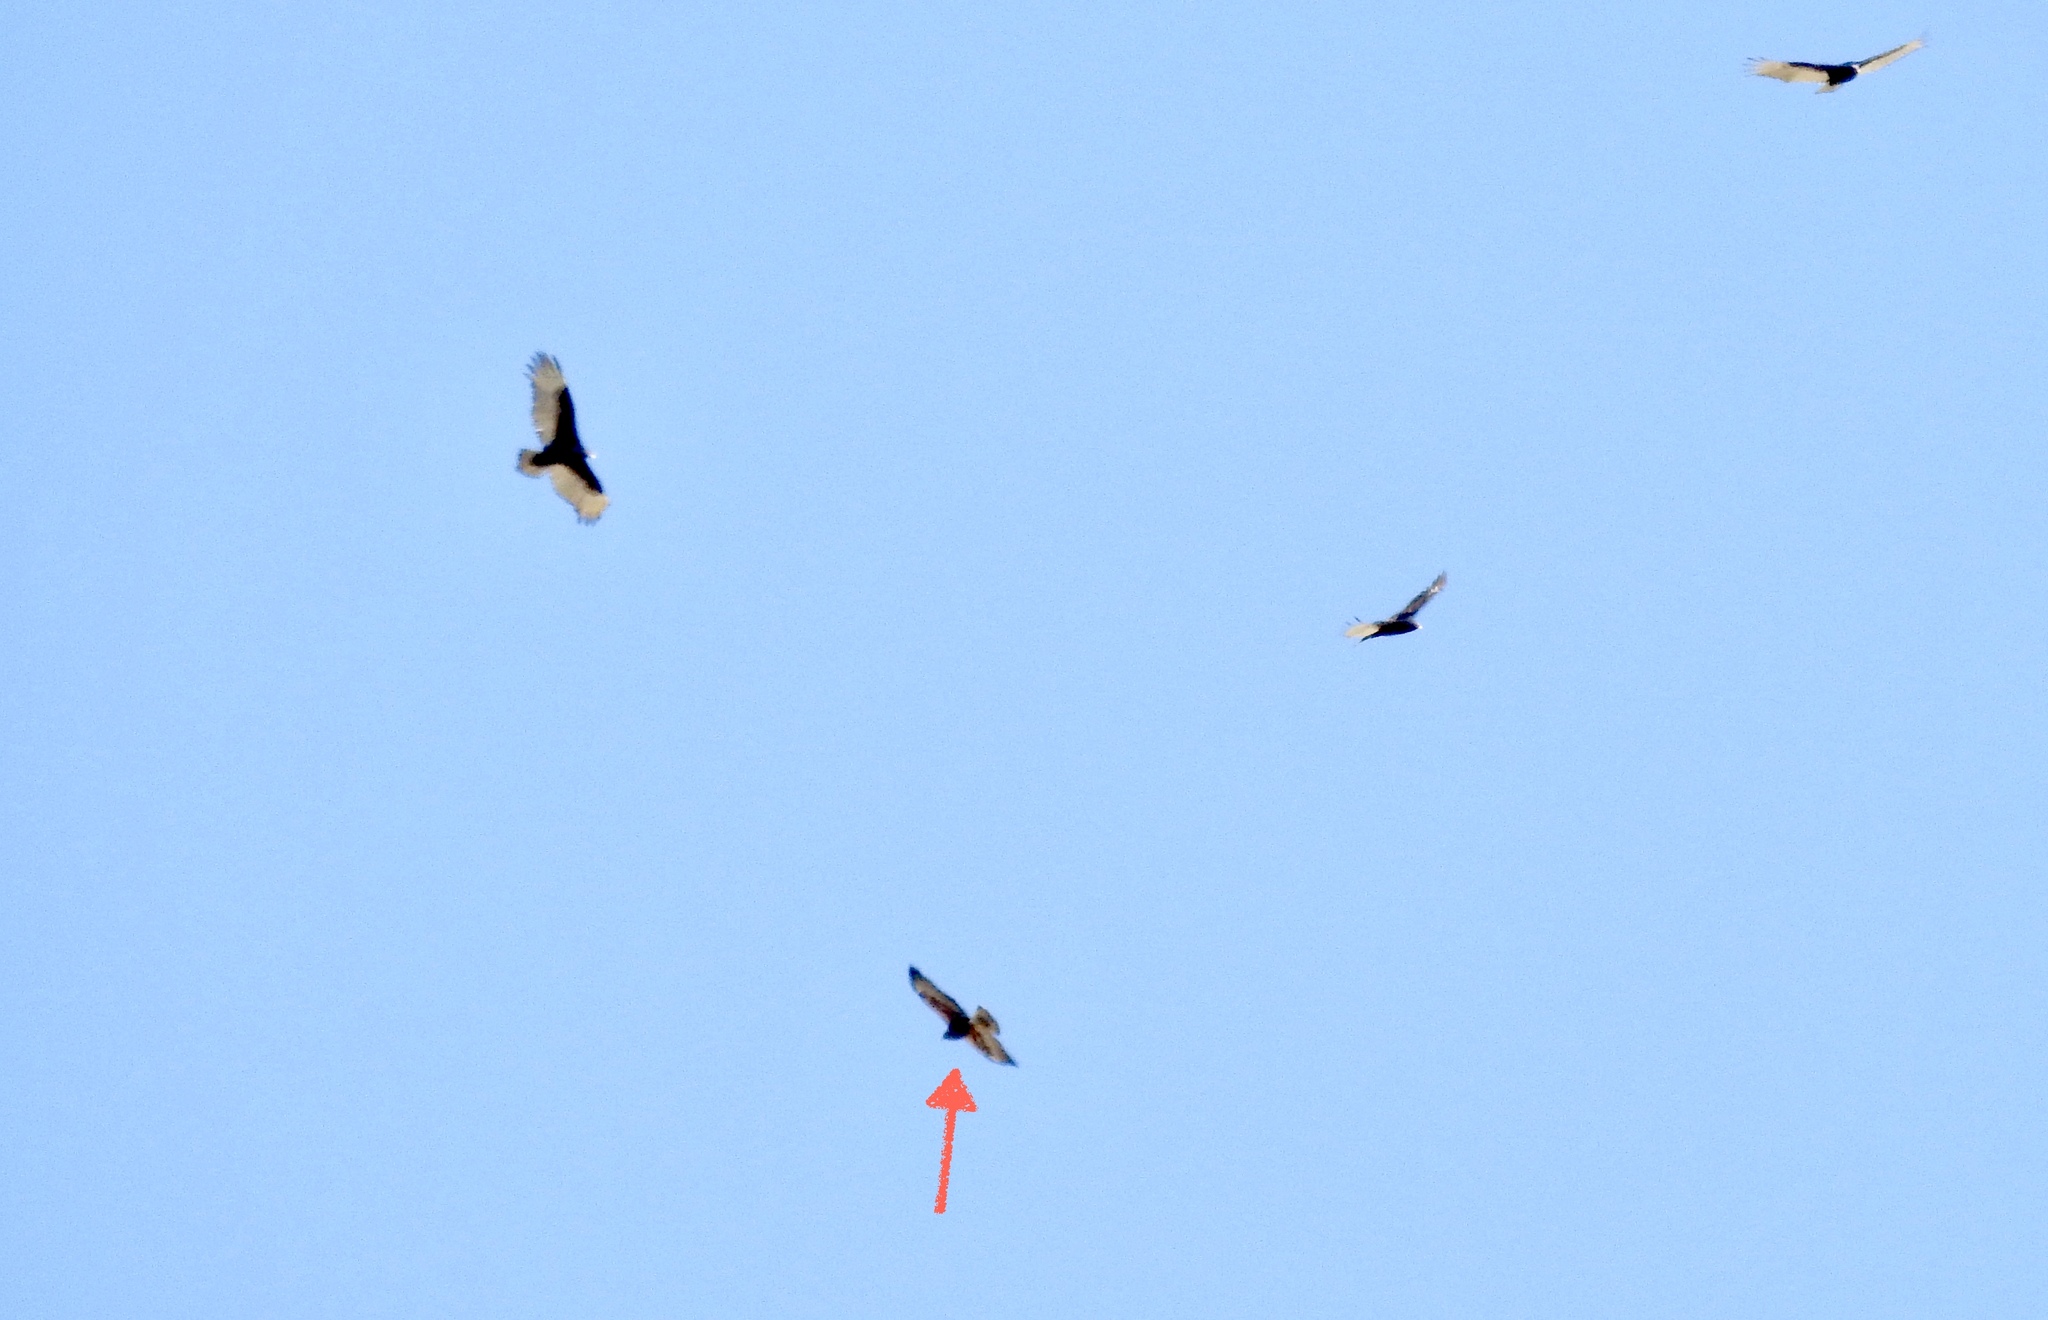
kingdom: Animalia
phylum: Chordata
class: Aves
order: Accipitriformes
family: Accipitridae
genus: Buteo
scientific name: Buteo swainsoni
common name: Swainson's hawk
